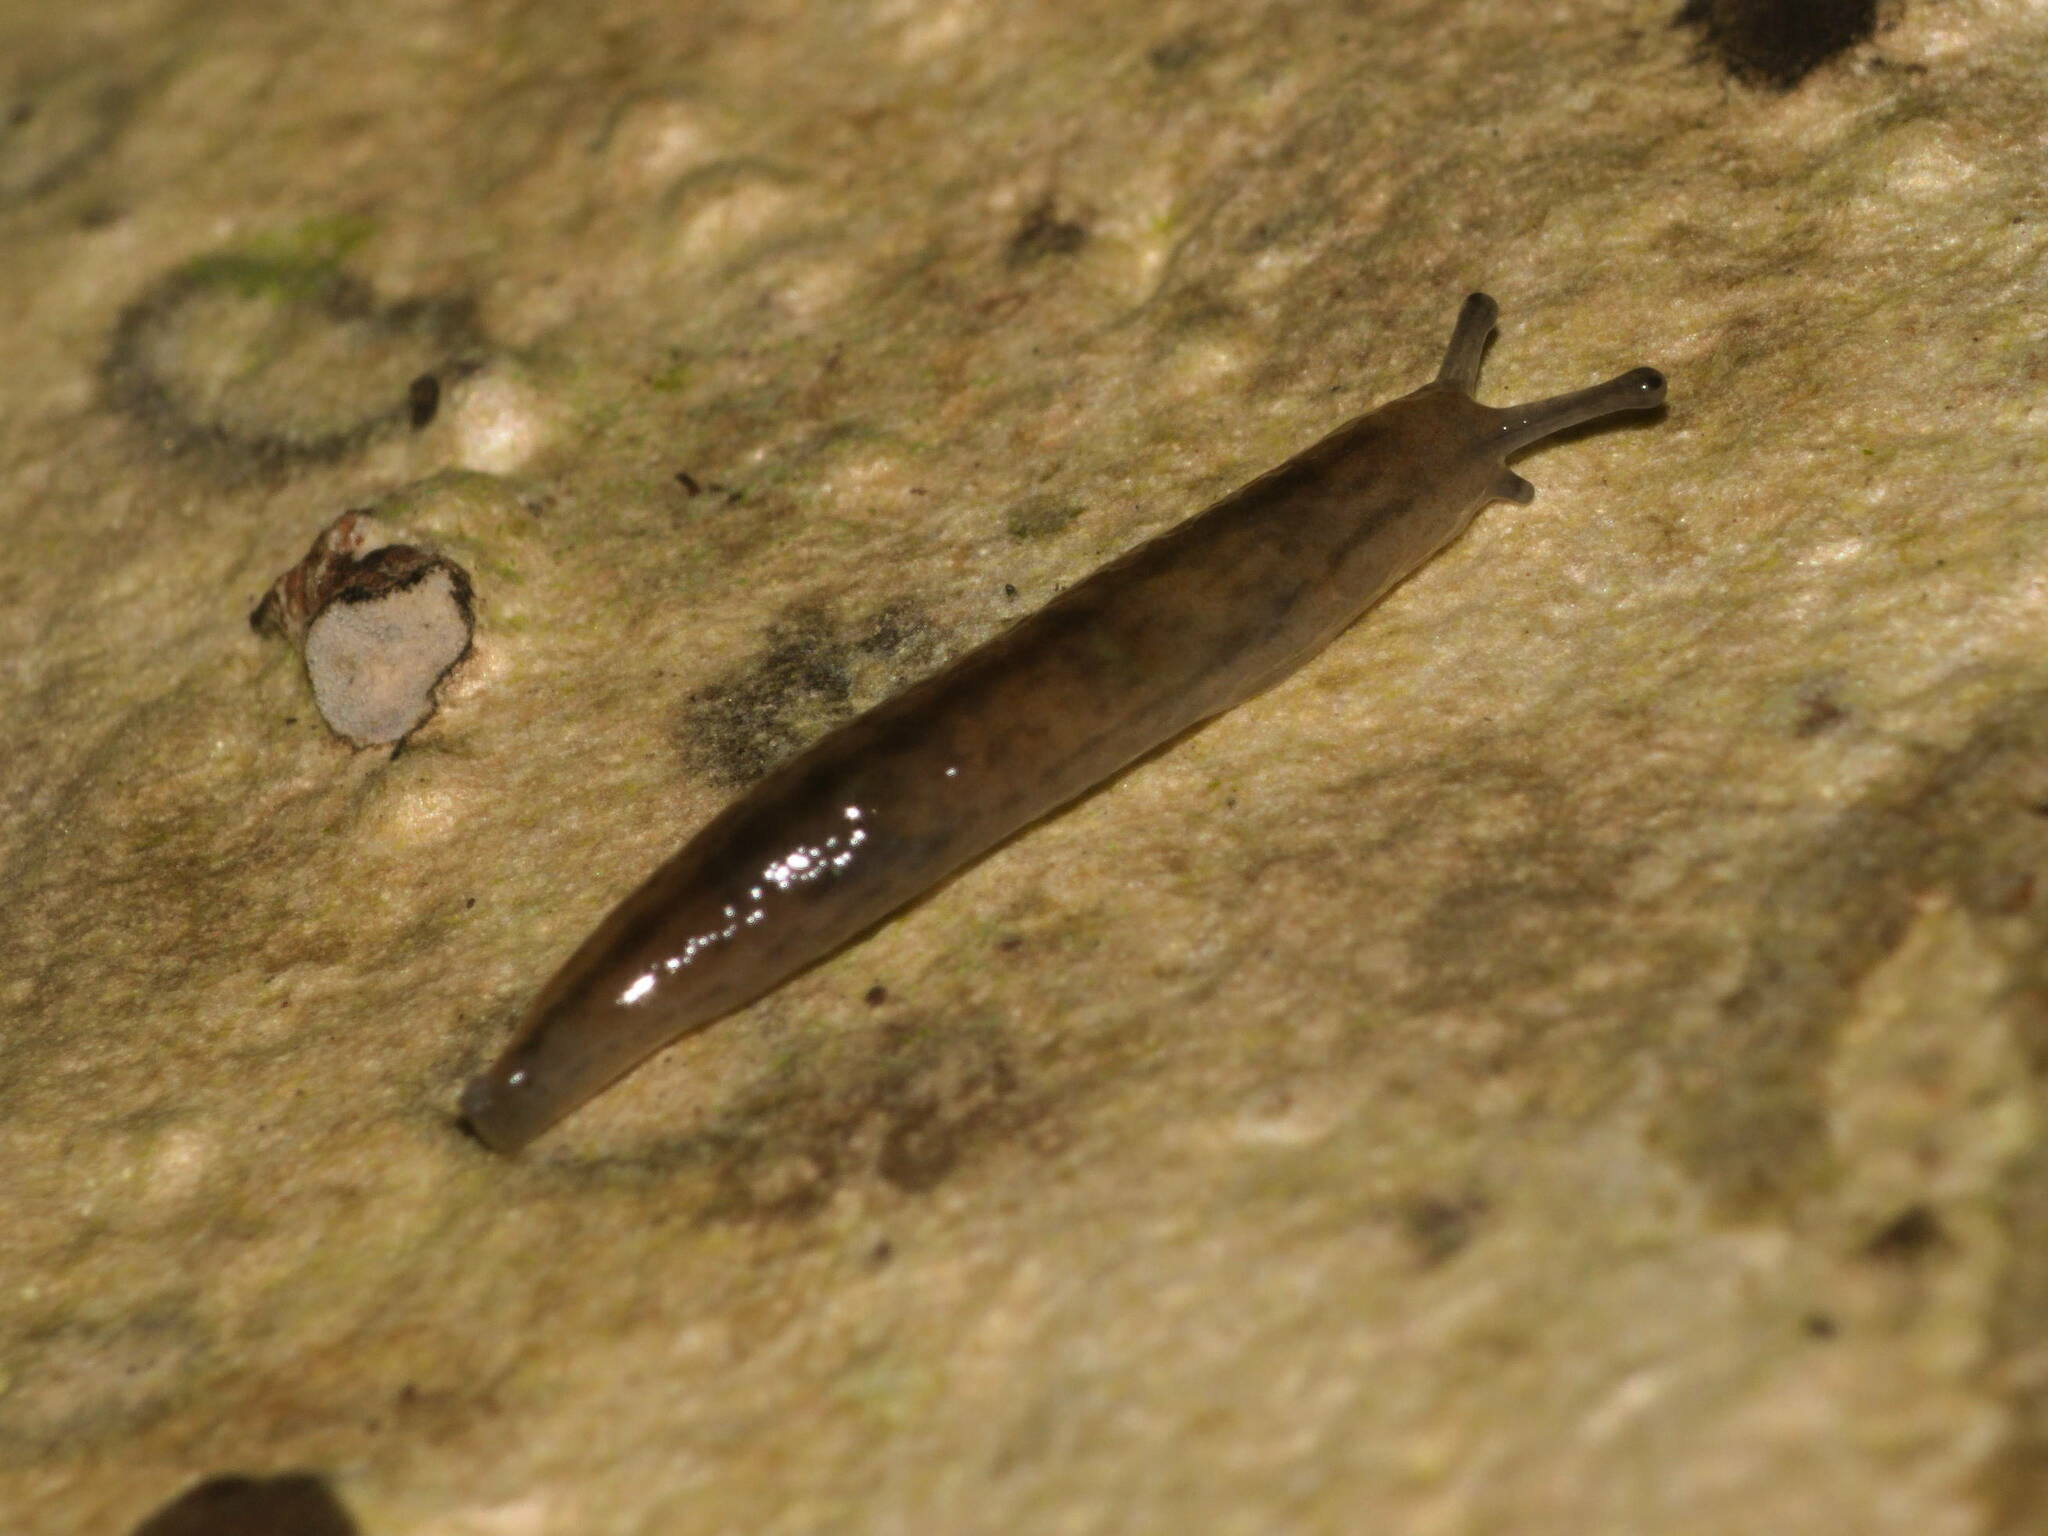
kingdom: Animalia
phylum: Mollusca
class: Gastropoda
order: Stylommatophora
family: Philomycidae
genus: Meghimatium
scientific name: Meghimatium bilineatum
